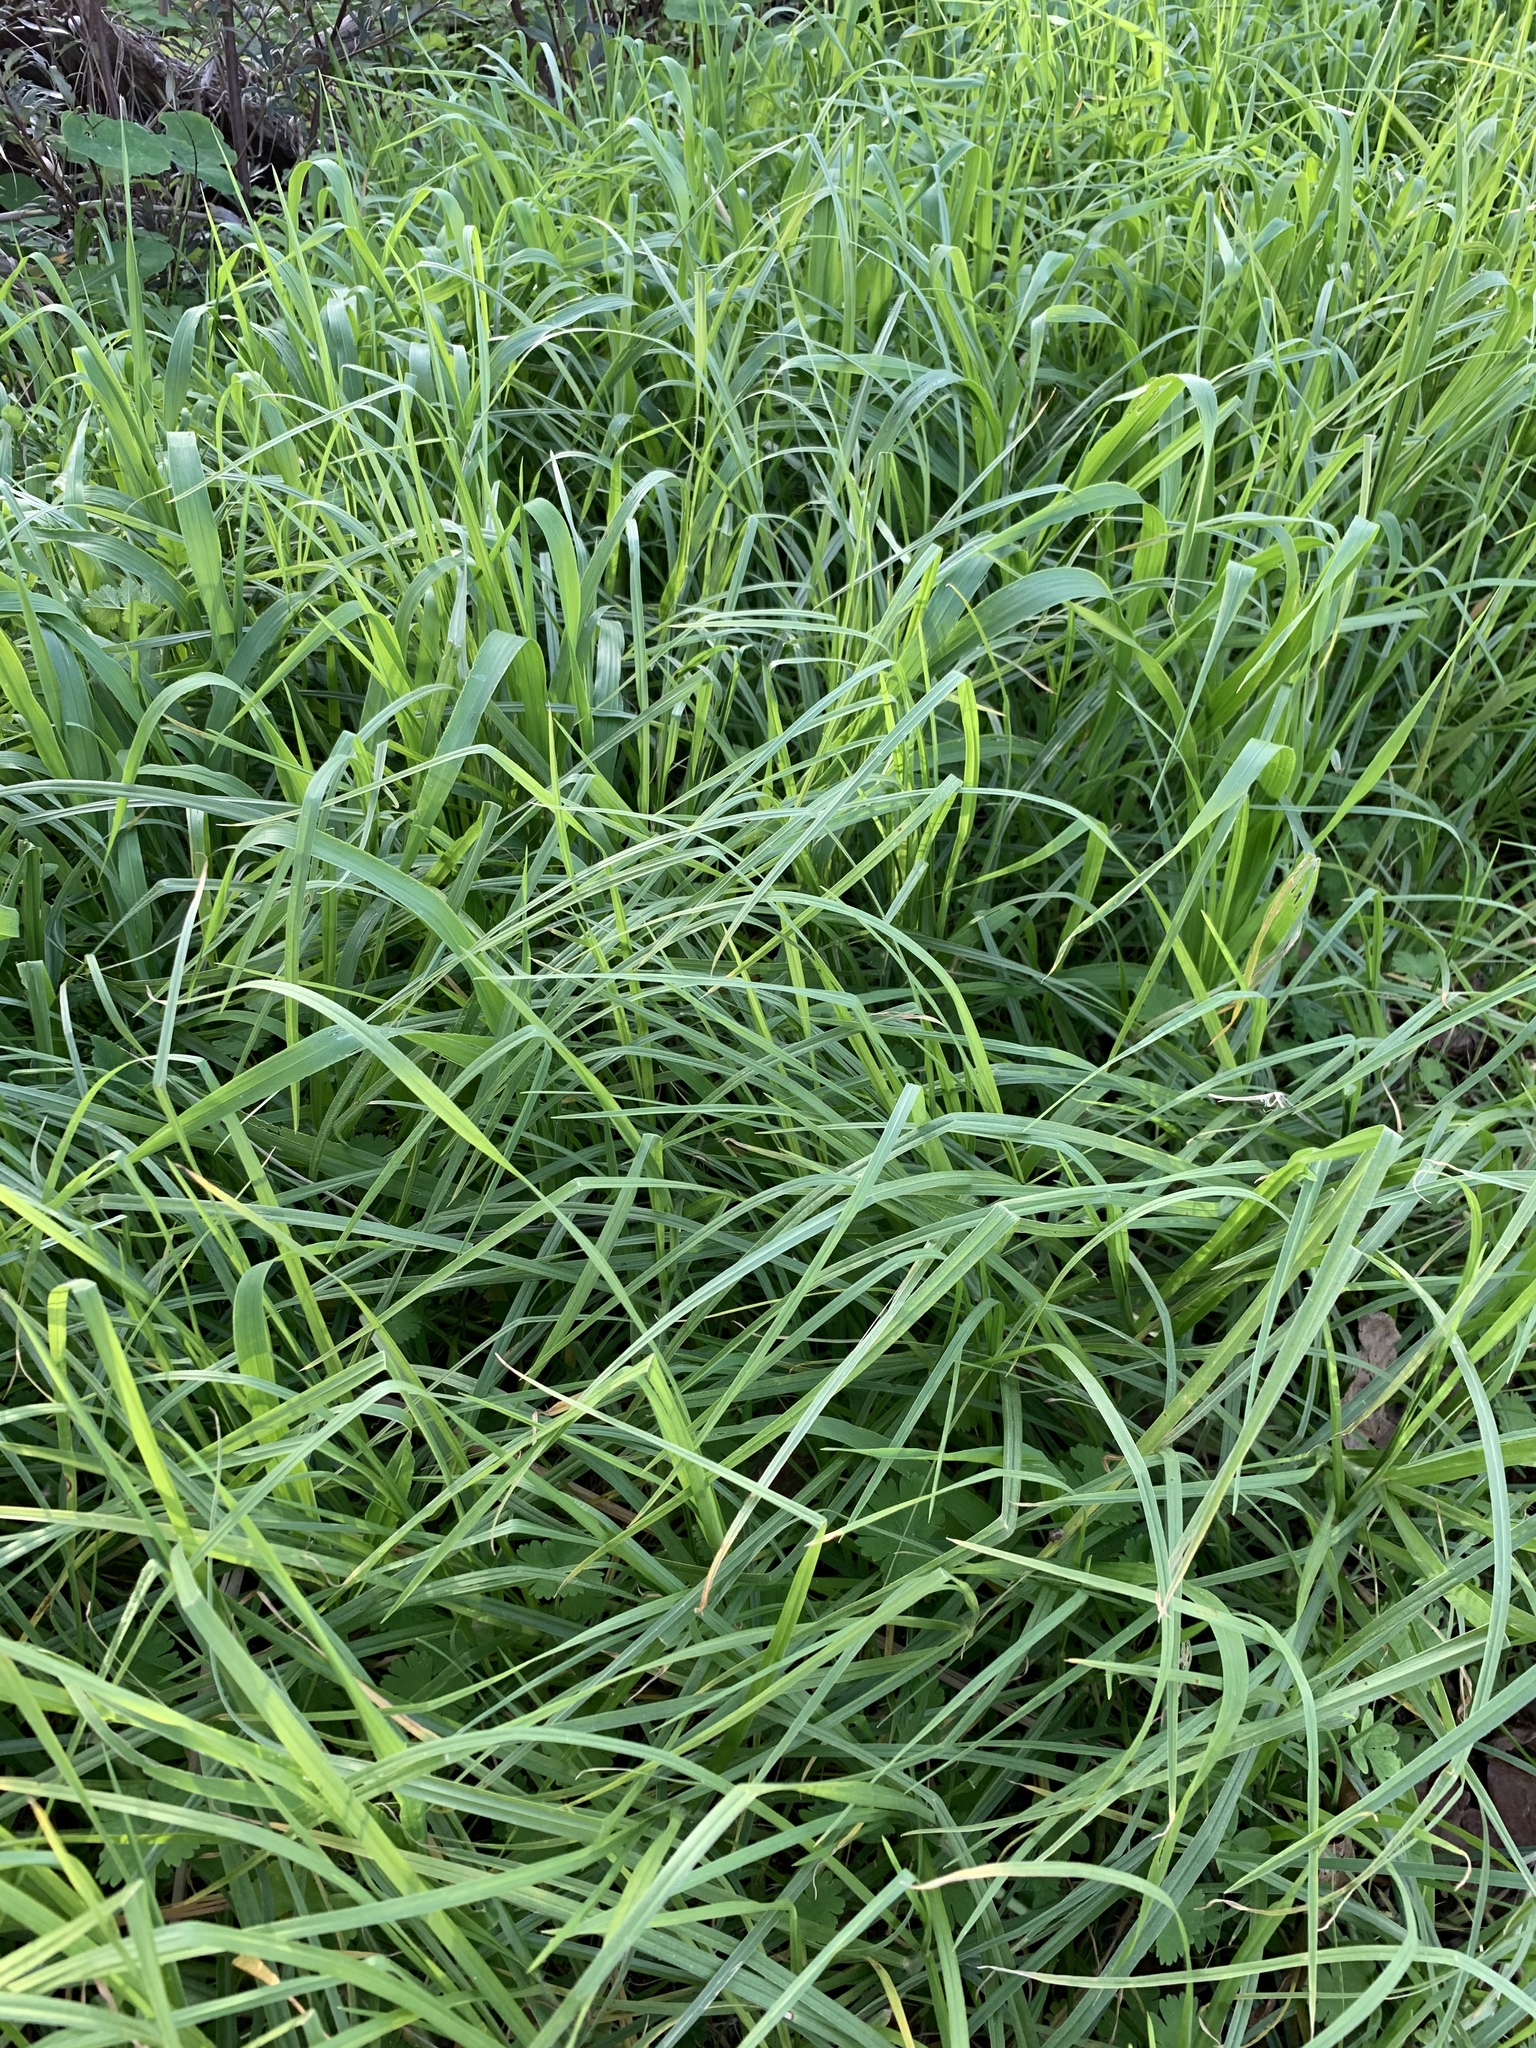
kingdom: Plantae
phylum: Tracheophyta
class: Liliopsida
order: Poales
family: Poaceae
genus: Cenchrus
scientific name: Cenchrus clandestinus
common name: Kikuyugrass
